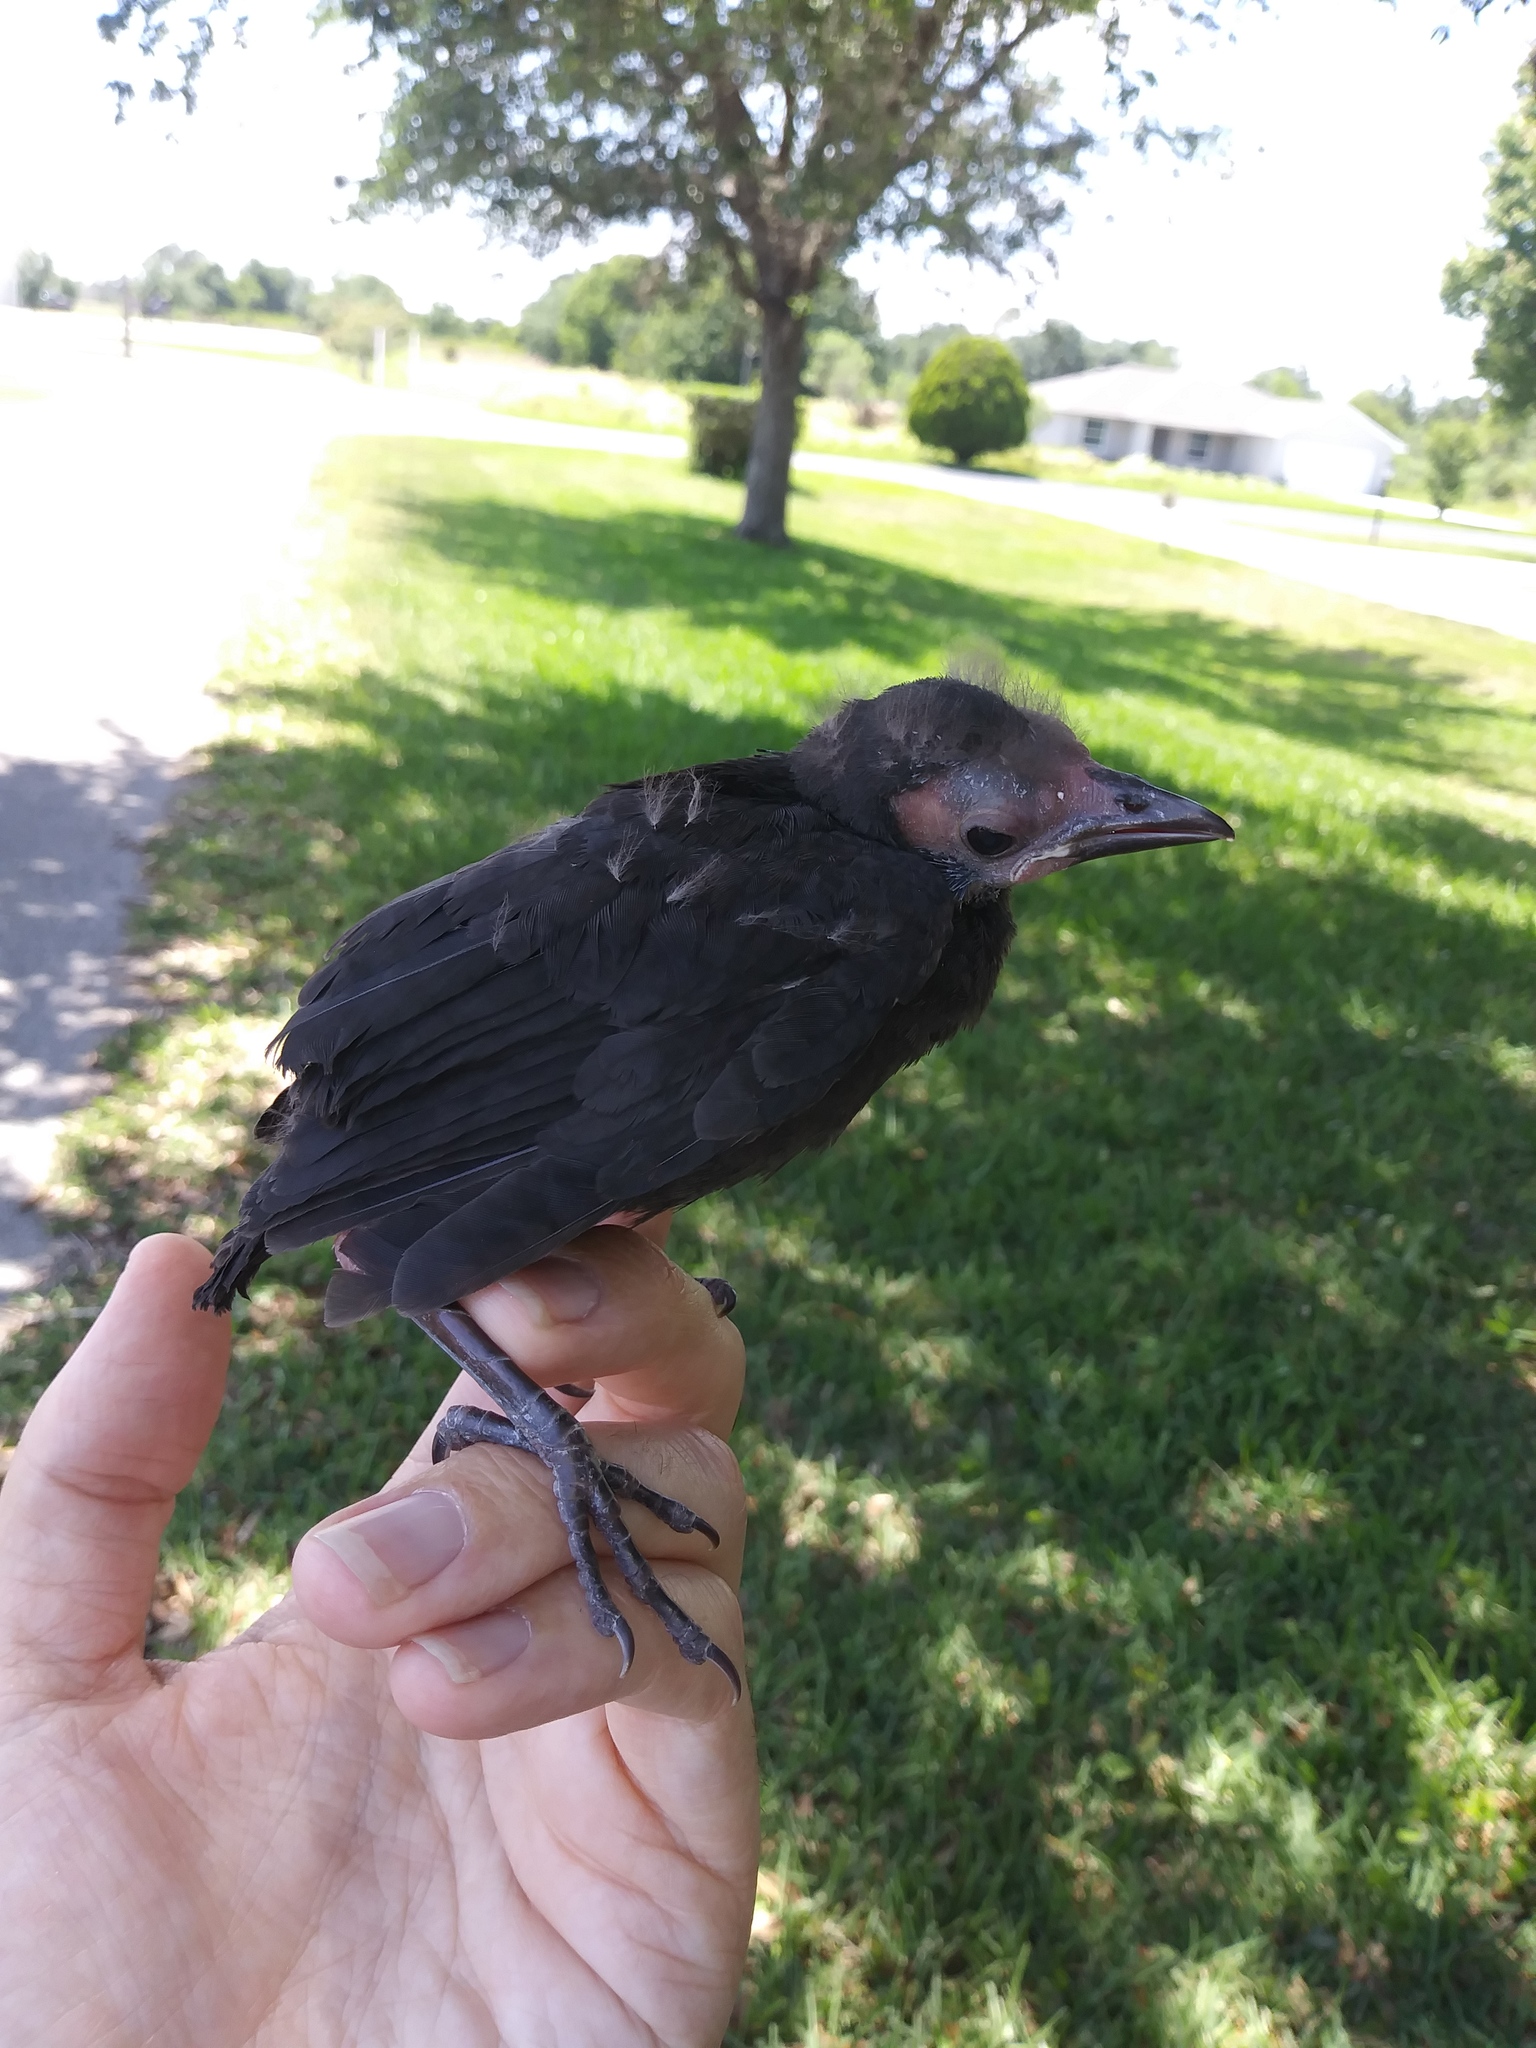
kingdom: Animalia
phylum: Chordata
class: Aves
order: Passeriformes
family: Icteridae
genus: Quiscalus
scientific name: Quiscalus quiscula
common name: Common grackle
